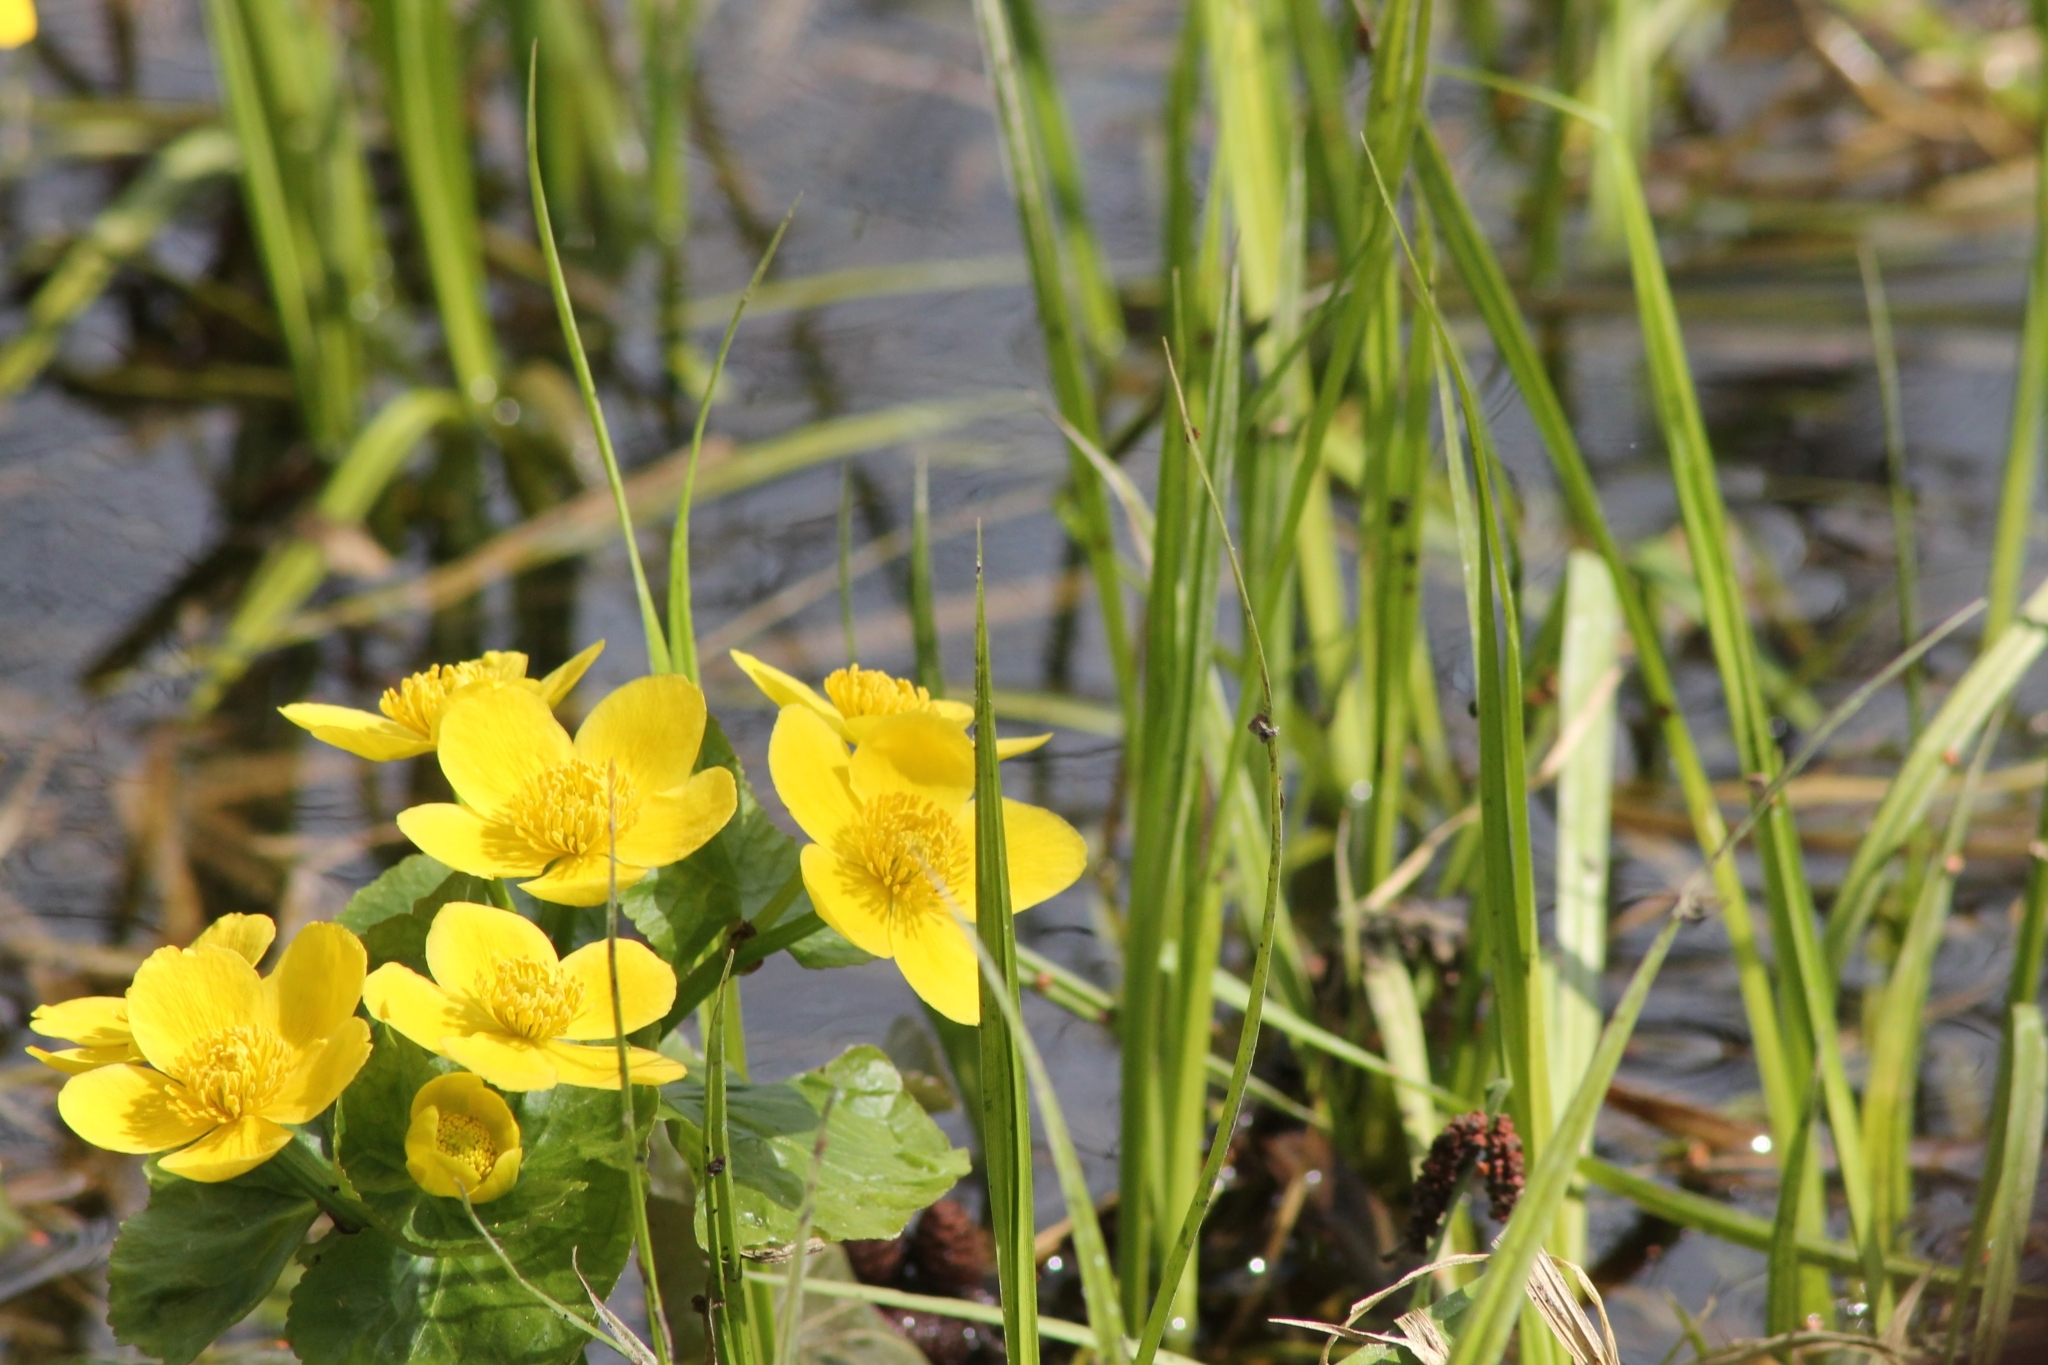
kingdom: Plantae
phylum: Tracheophyta
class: Magnoliopsida
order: Ranunculales
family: Ranunculaceae
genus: Caltha
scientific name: Caltha palustris
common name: Marsh marigold
